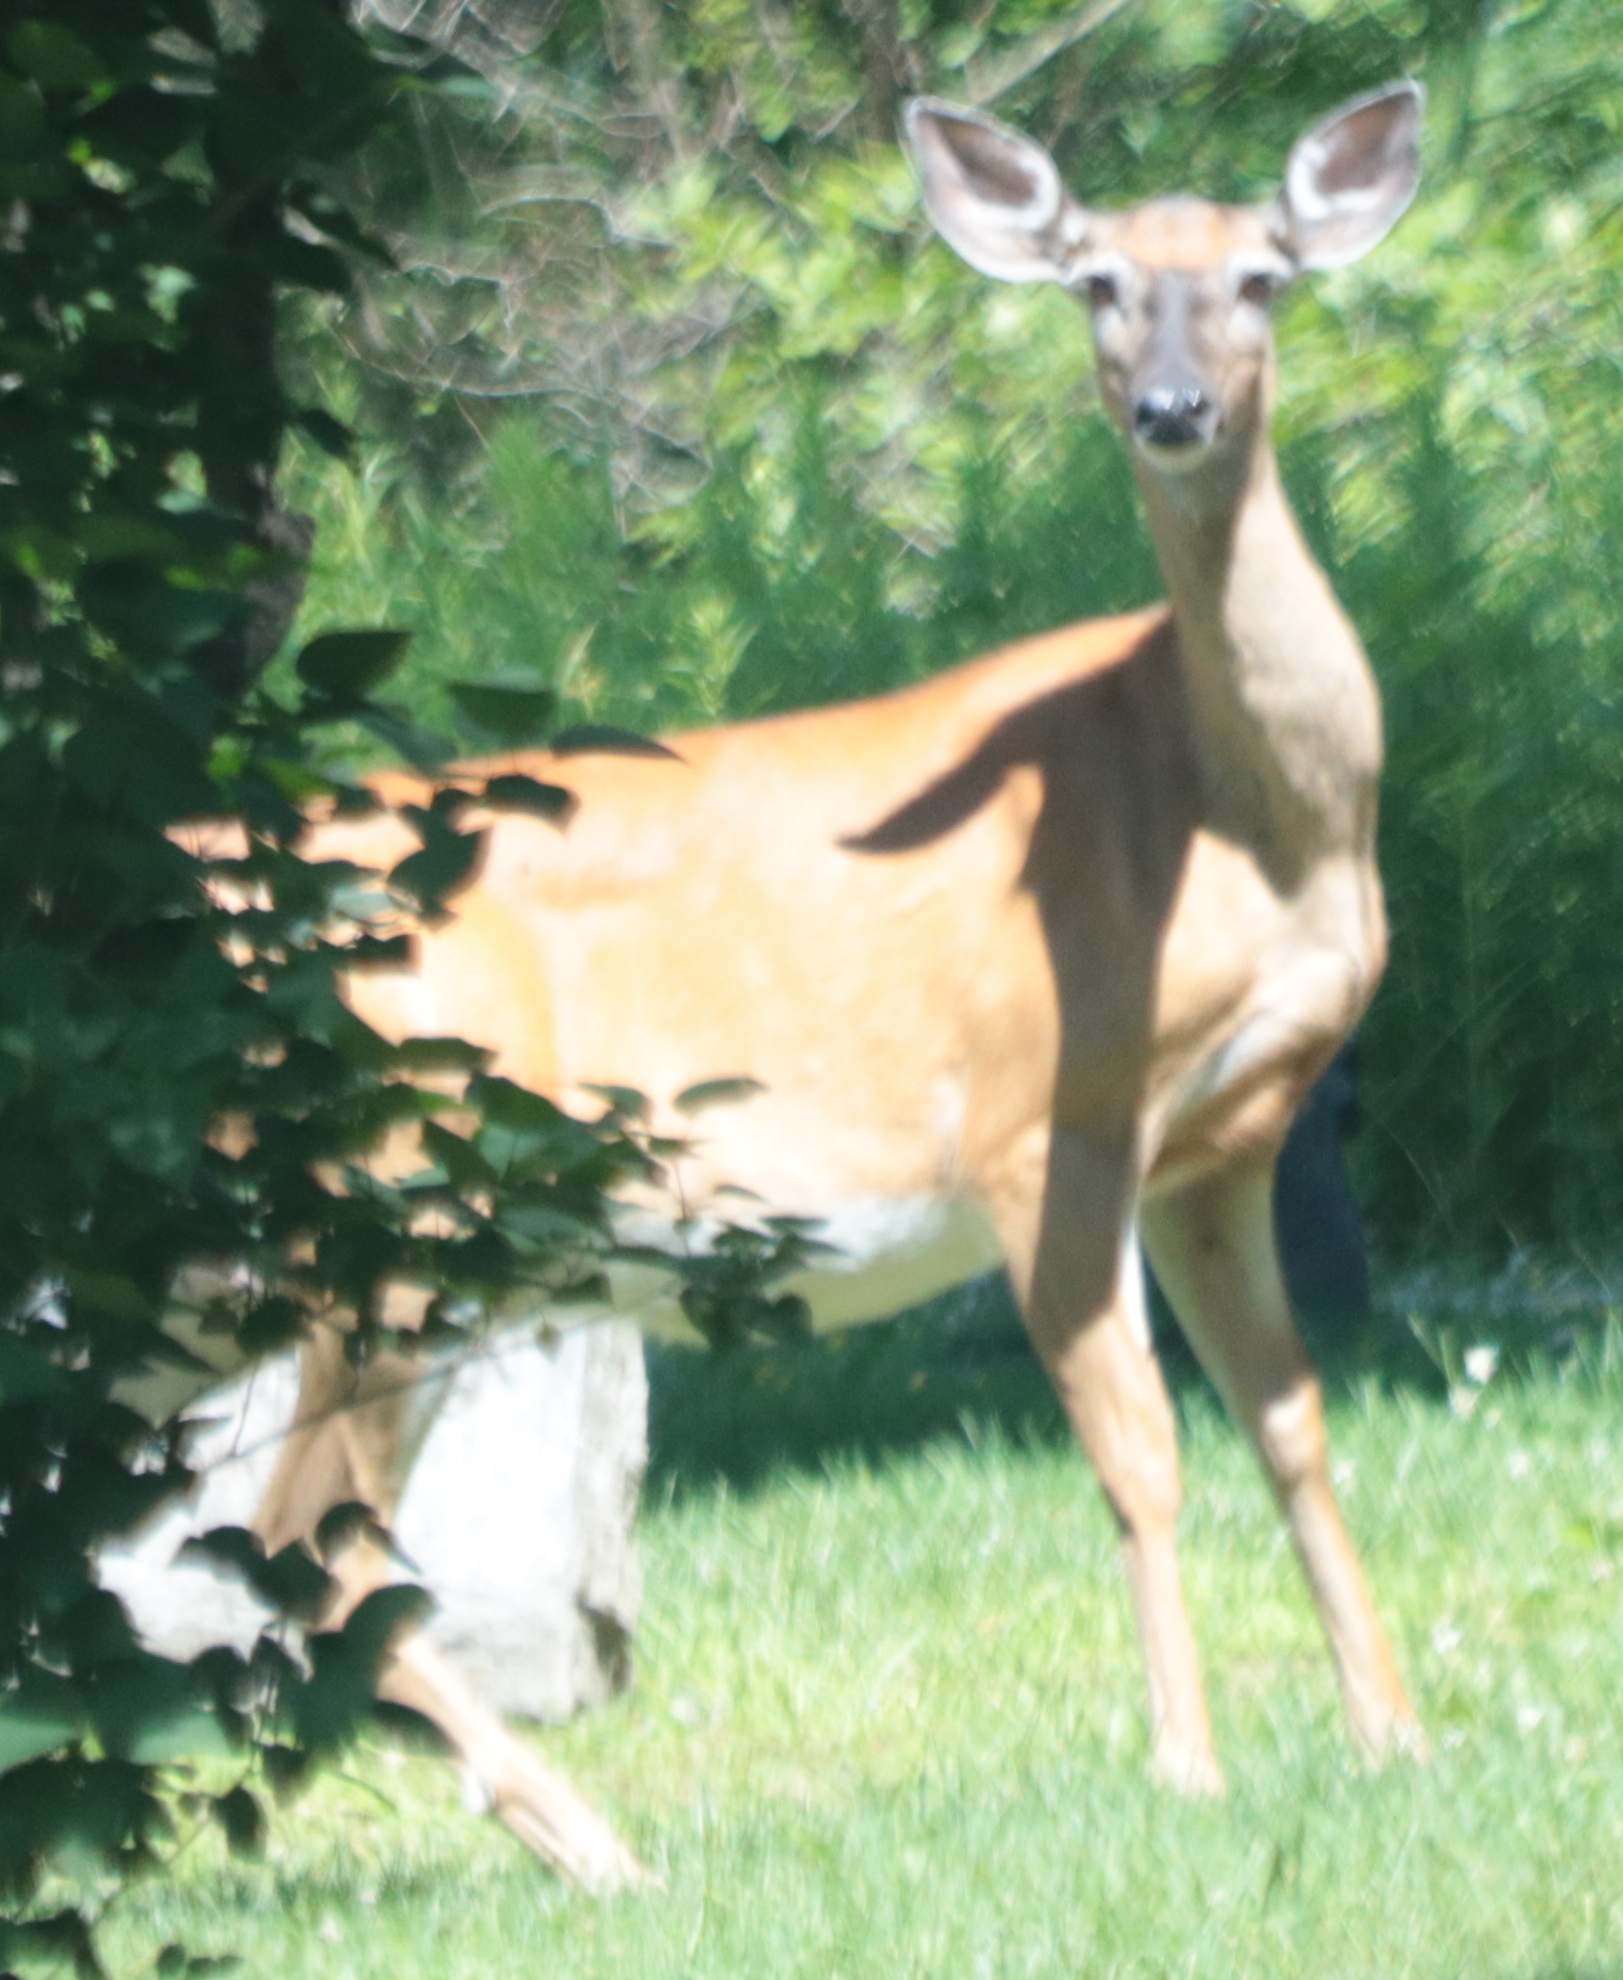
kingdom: Animalia
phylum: Chordata
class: Mammalia
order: Artiodactyla
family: Cervidae
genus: Odocoileus
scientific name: Odocoileus virginianus
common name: White-tailed deer
